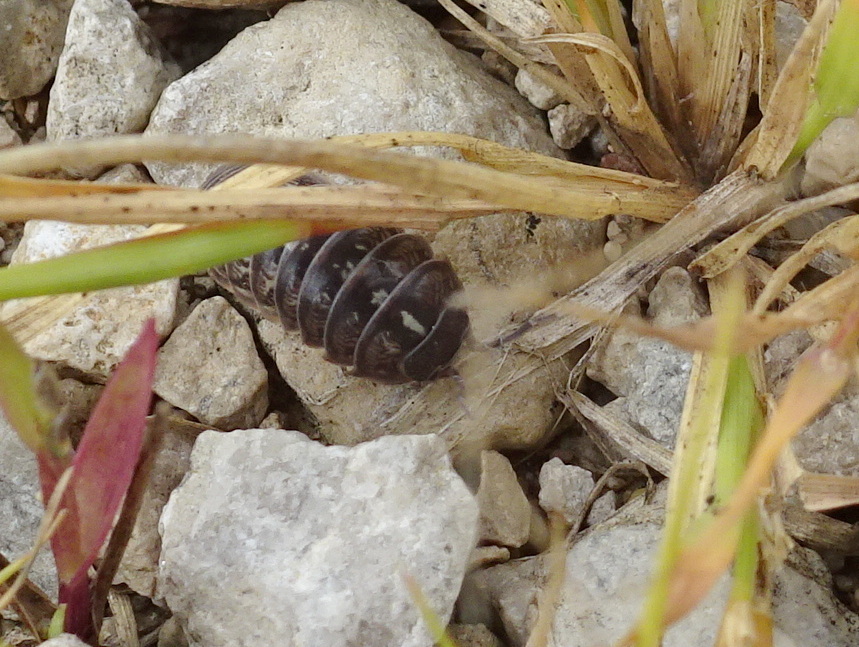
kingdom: Animalia
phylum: Arthropoda
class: Malacostraca
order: Isopoda
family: Armadillidiidae
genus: Armadillidium
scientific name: Armadillidium vulgare
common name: Common pill woodlouse
